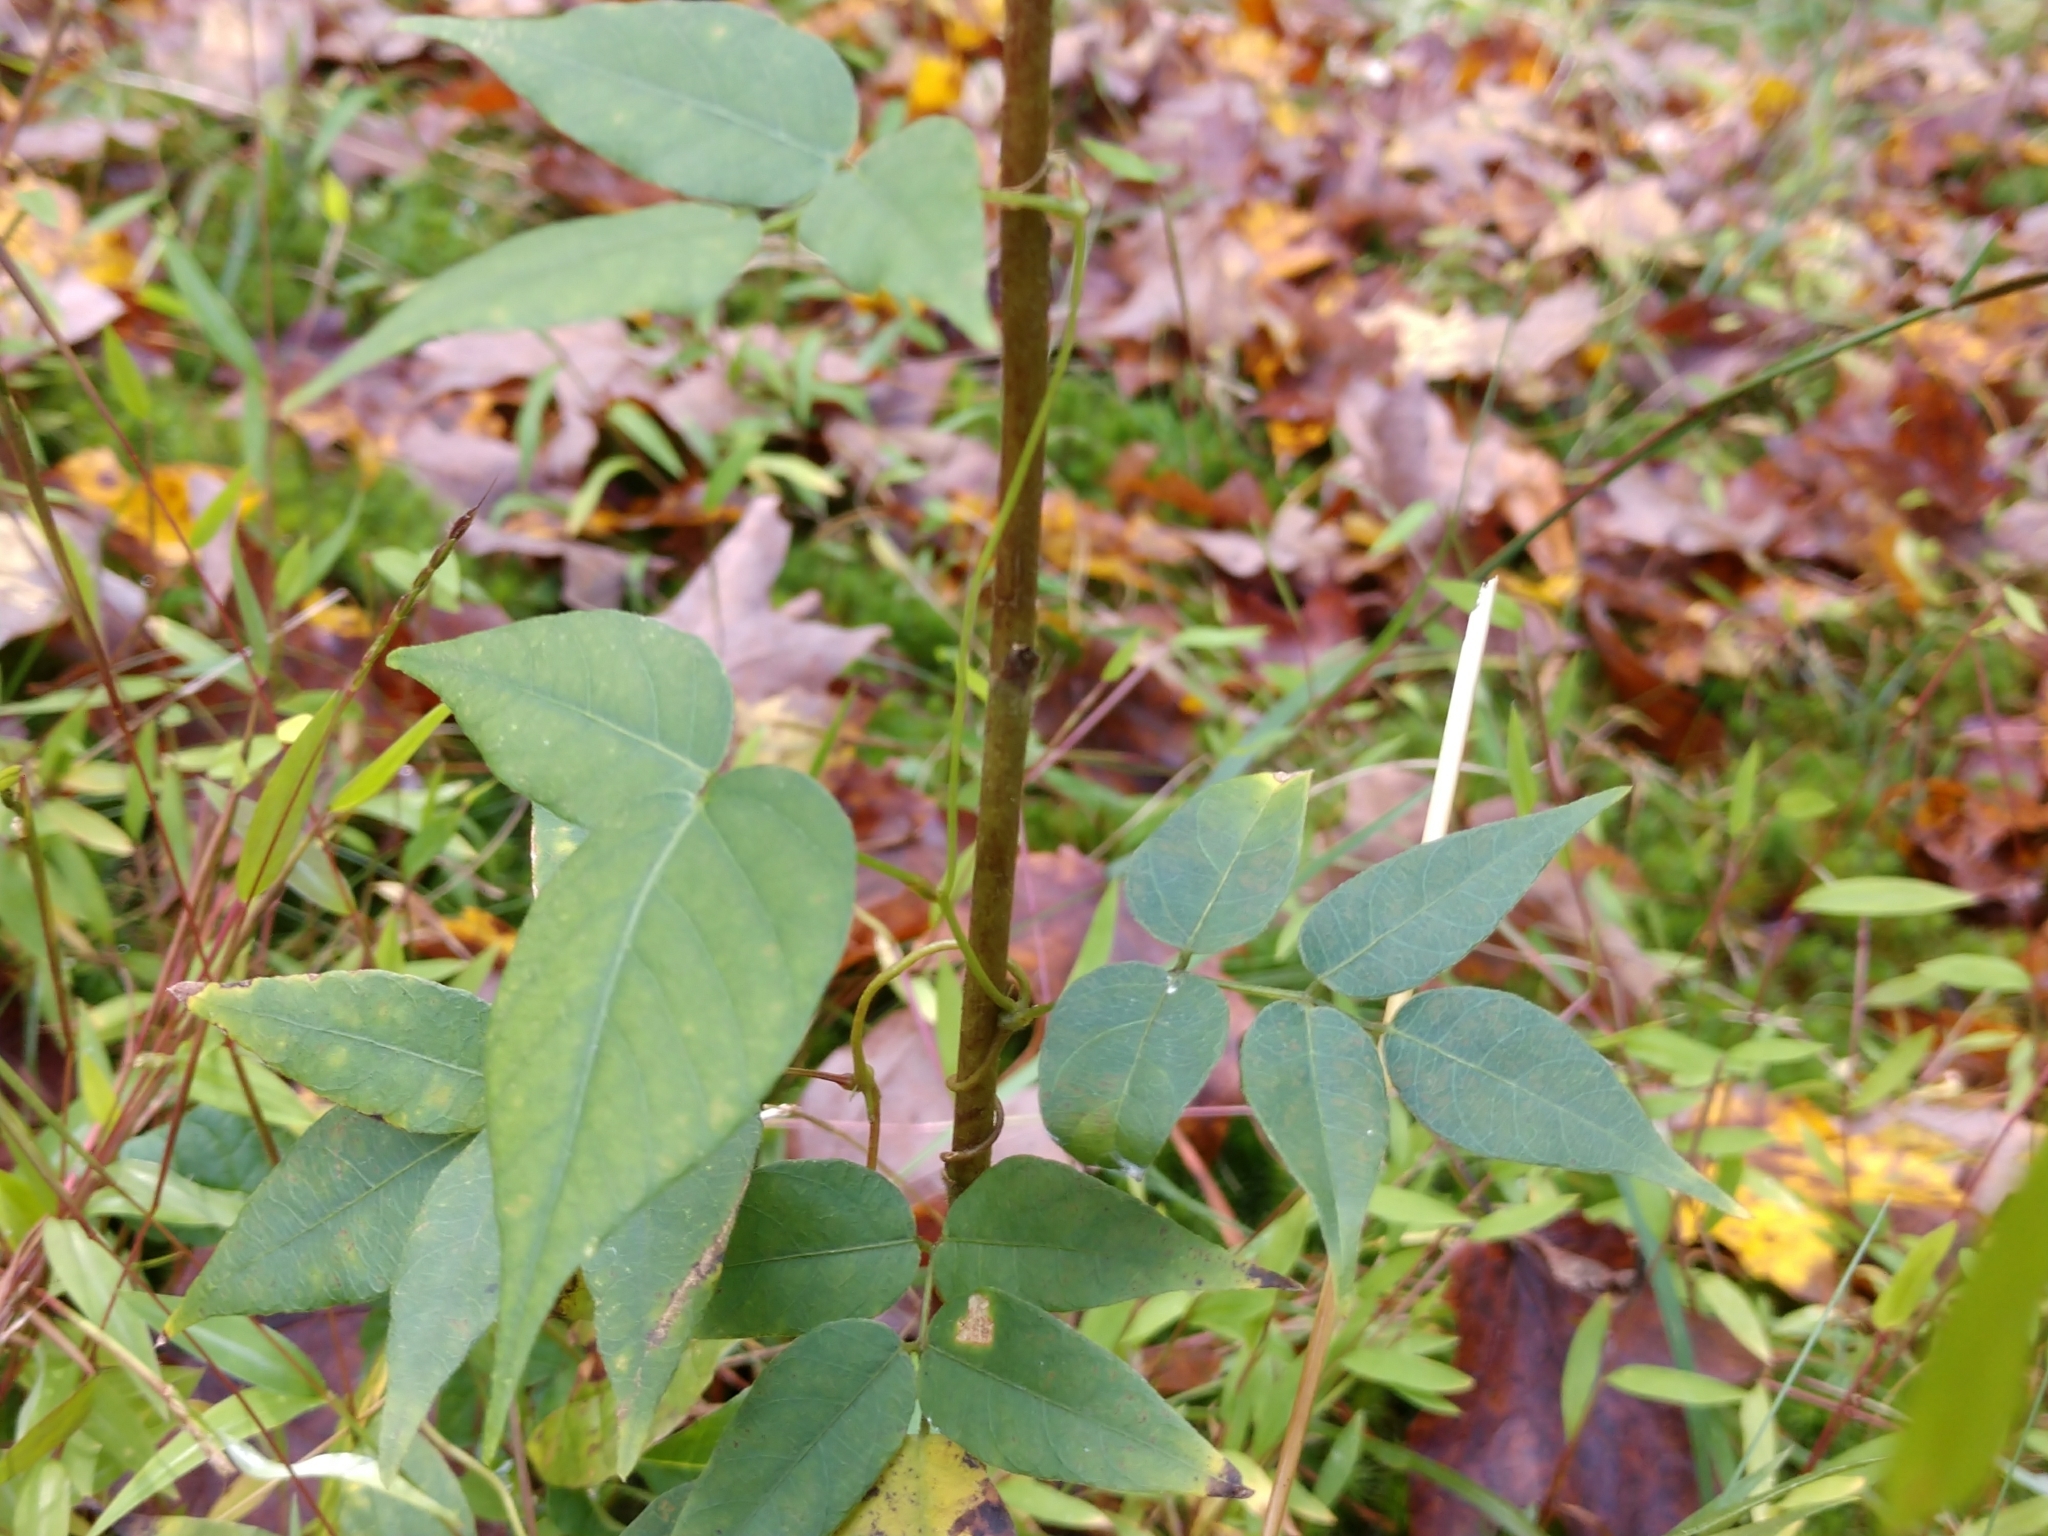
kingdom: Plantae
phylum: Tracheophyta
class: Magnoliopsida
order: Fabales
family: Fabaceae
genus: Apios
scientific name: Apios americana
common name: American potato-bean
